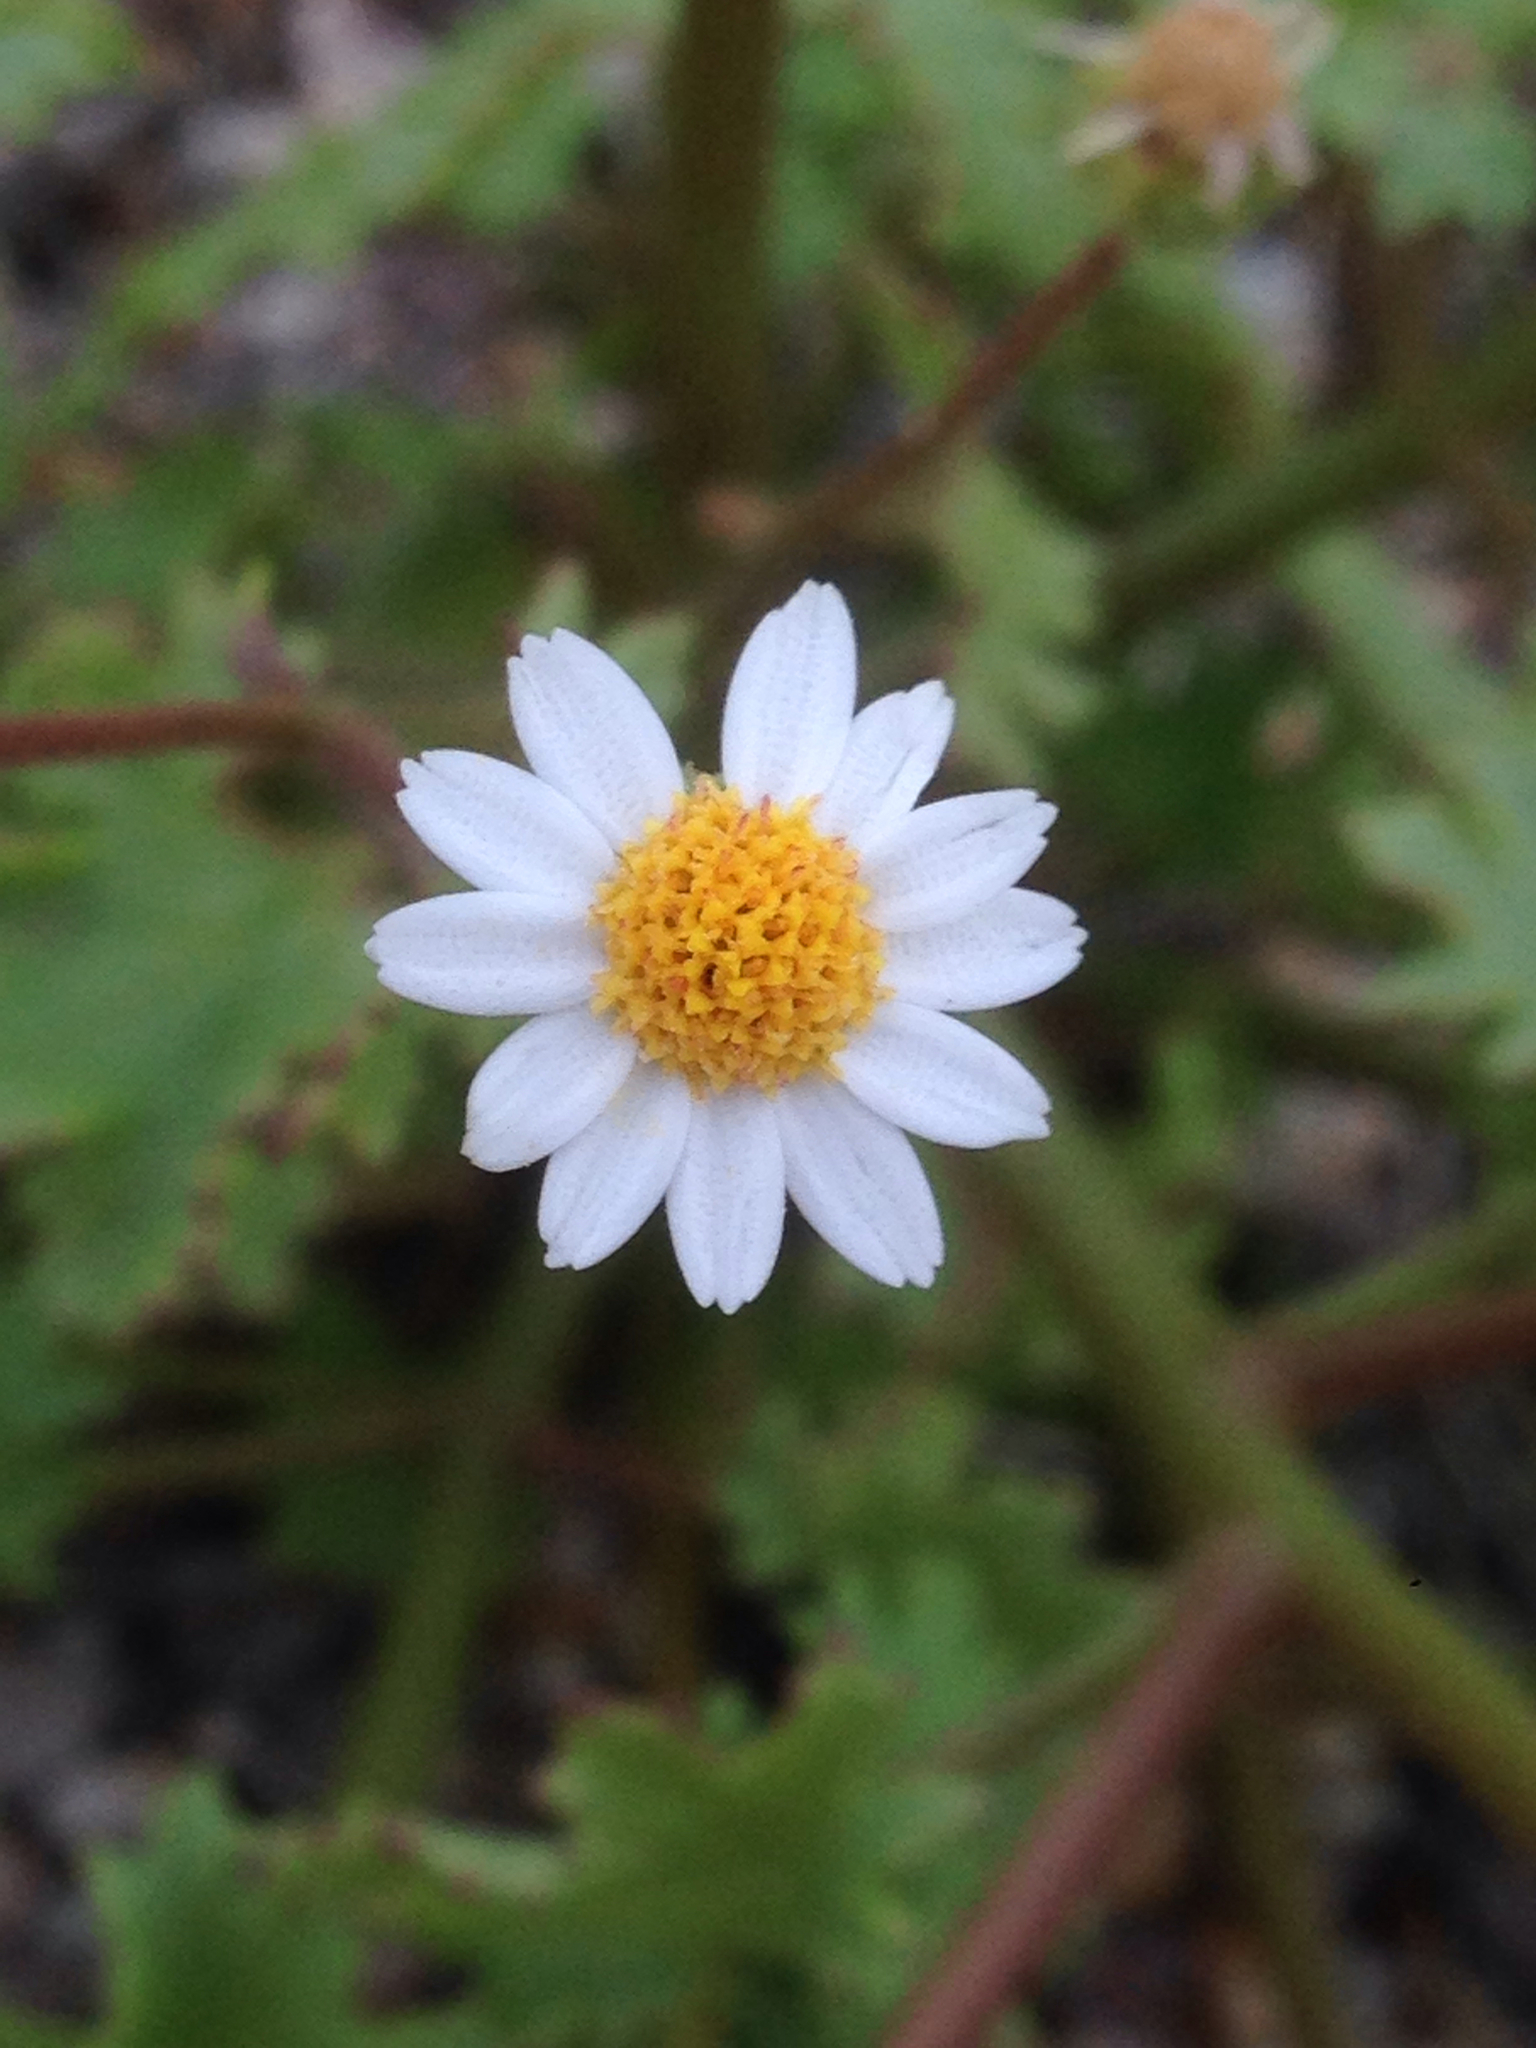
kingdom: Plantae
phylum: Tracheophyta
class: Magnoliopsida
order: Asterales
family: Asteraceae
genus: Laphamia
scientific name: Laphamia emoryi
